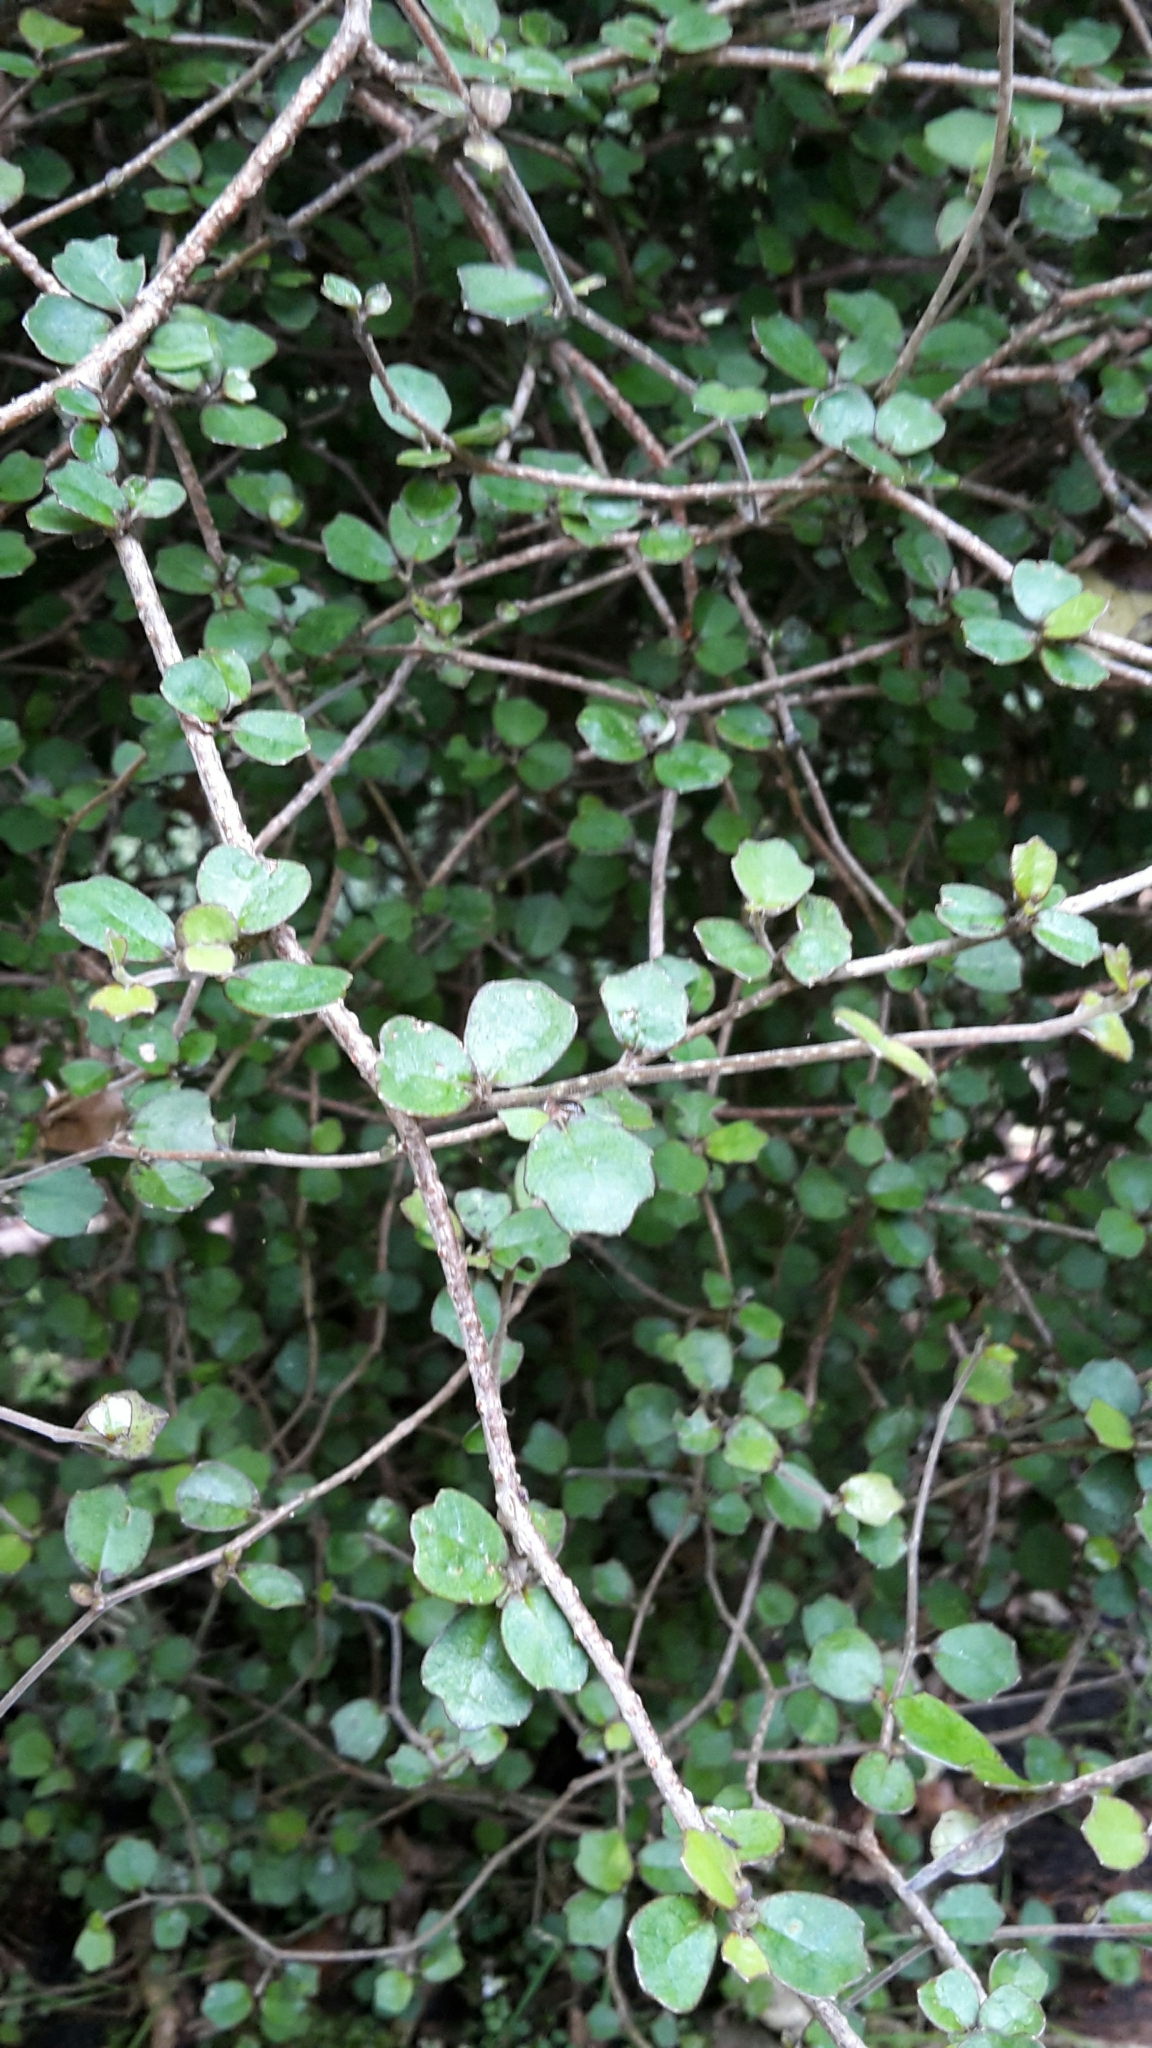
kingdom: Plantae
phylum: Tracheophyta
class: Magnoliopsida
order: Apiales
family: Pennantiaceae
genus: Pennantia
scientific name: Pennantia corymbosa
